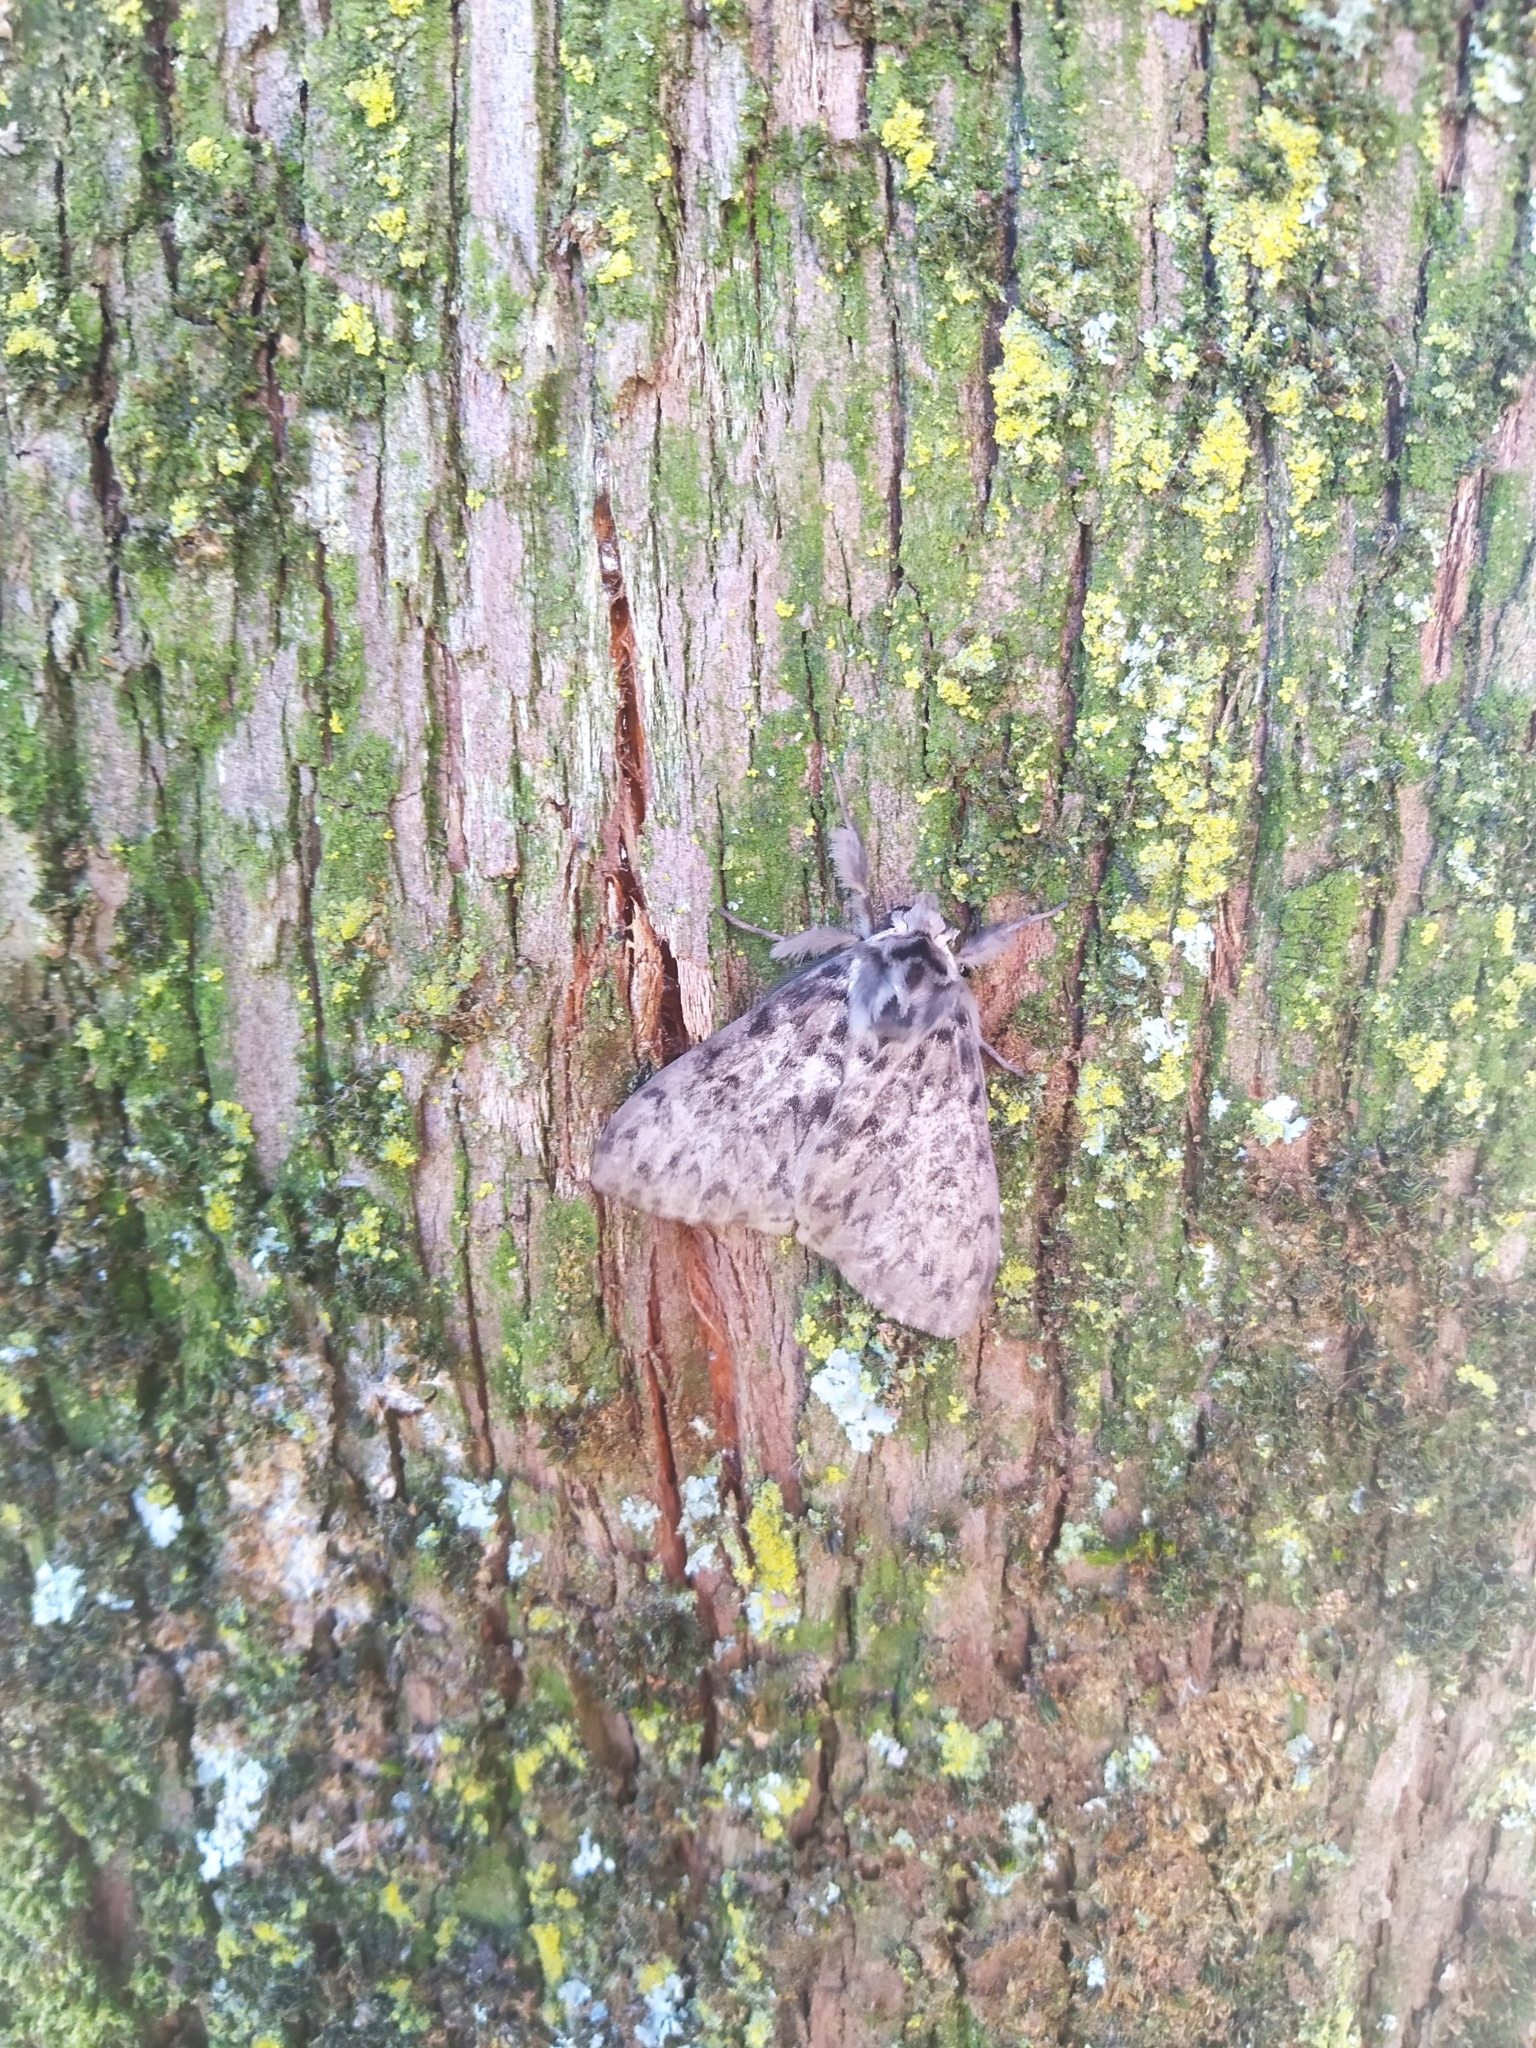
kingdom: Animalia
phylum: Arthropoda
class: Insecta
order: Lepidoptera
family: Erebidae
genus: Lymantria
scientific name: Lymantria monacha
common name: Black arches
